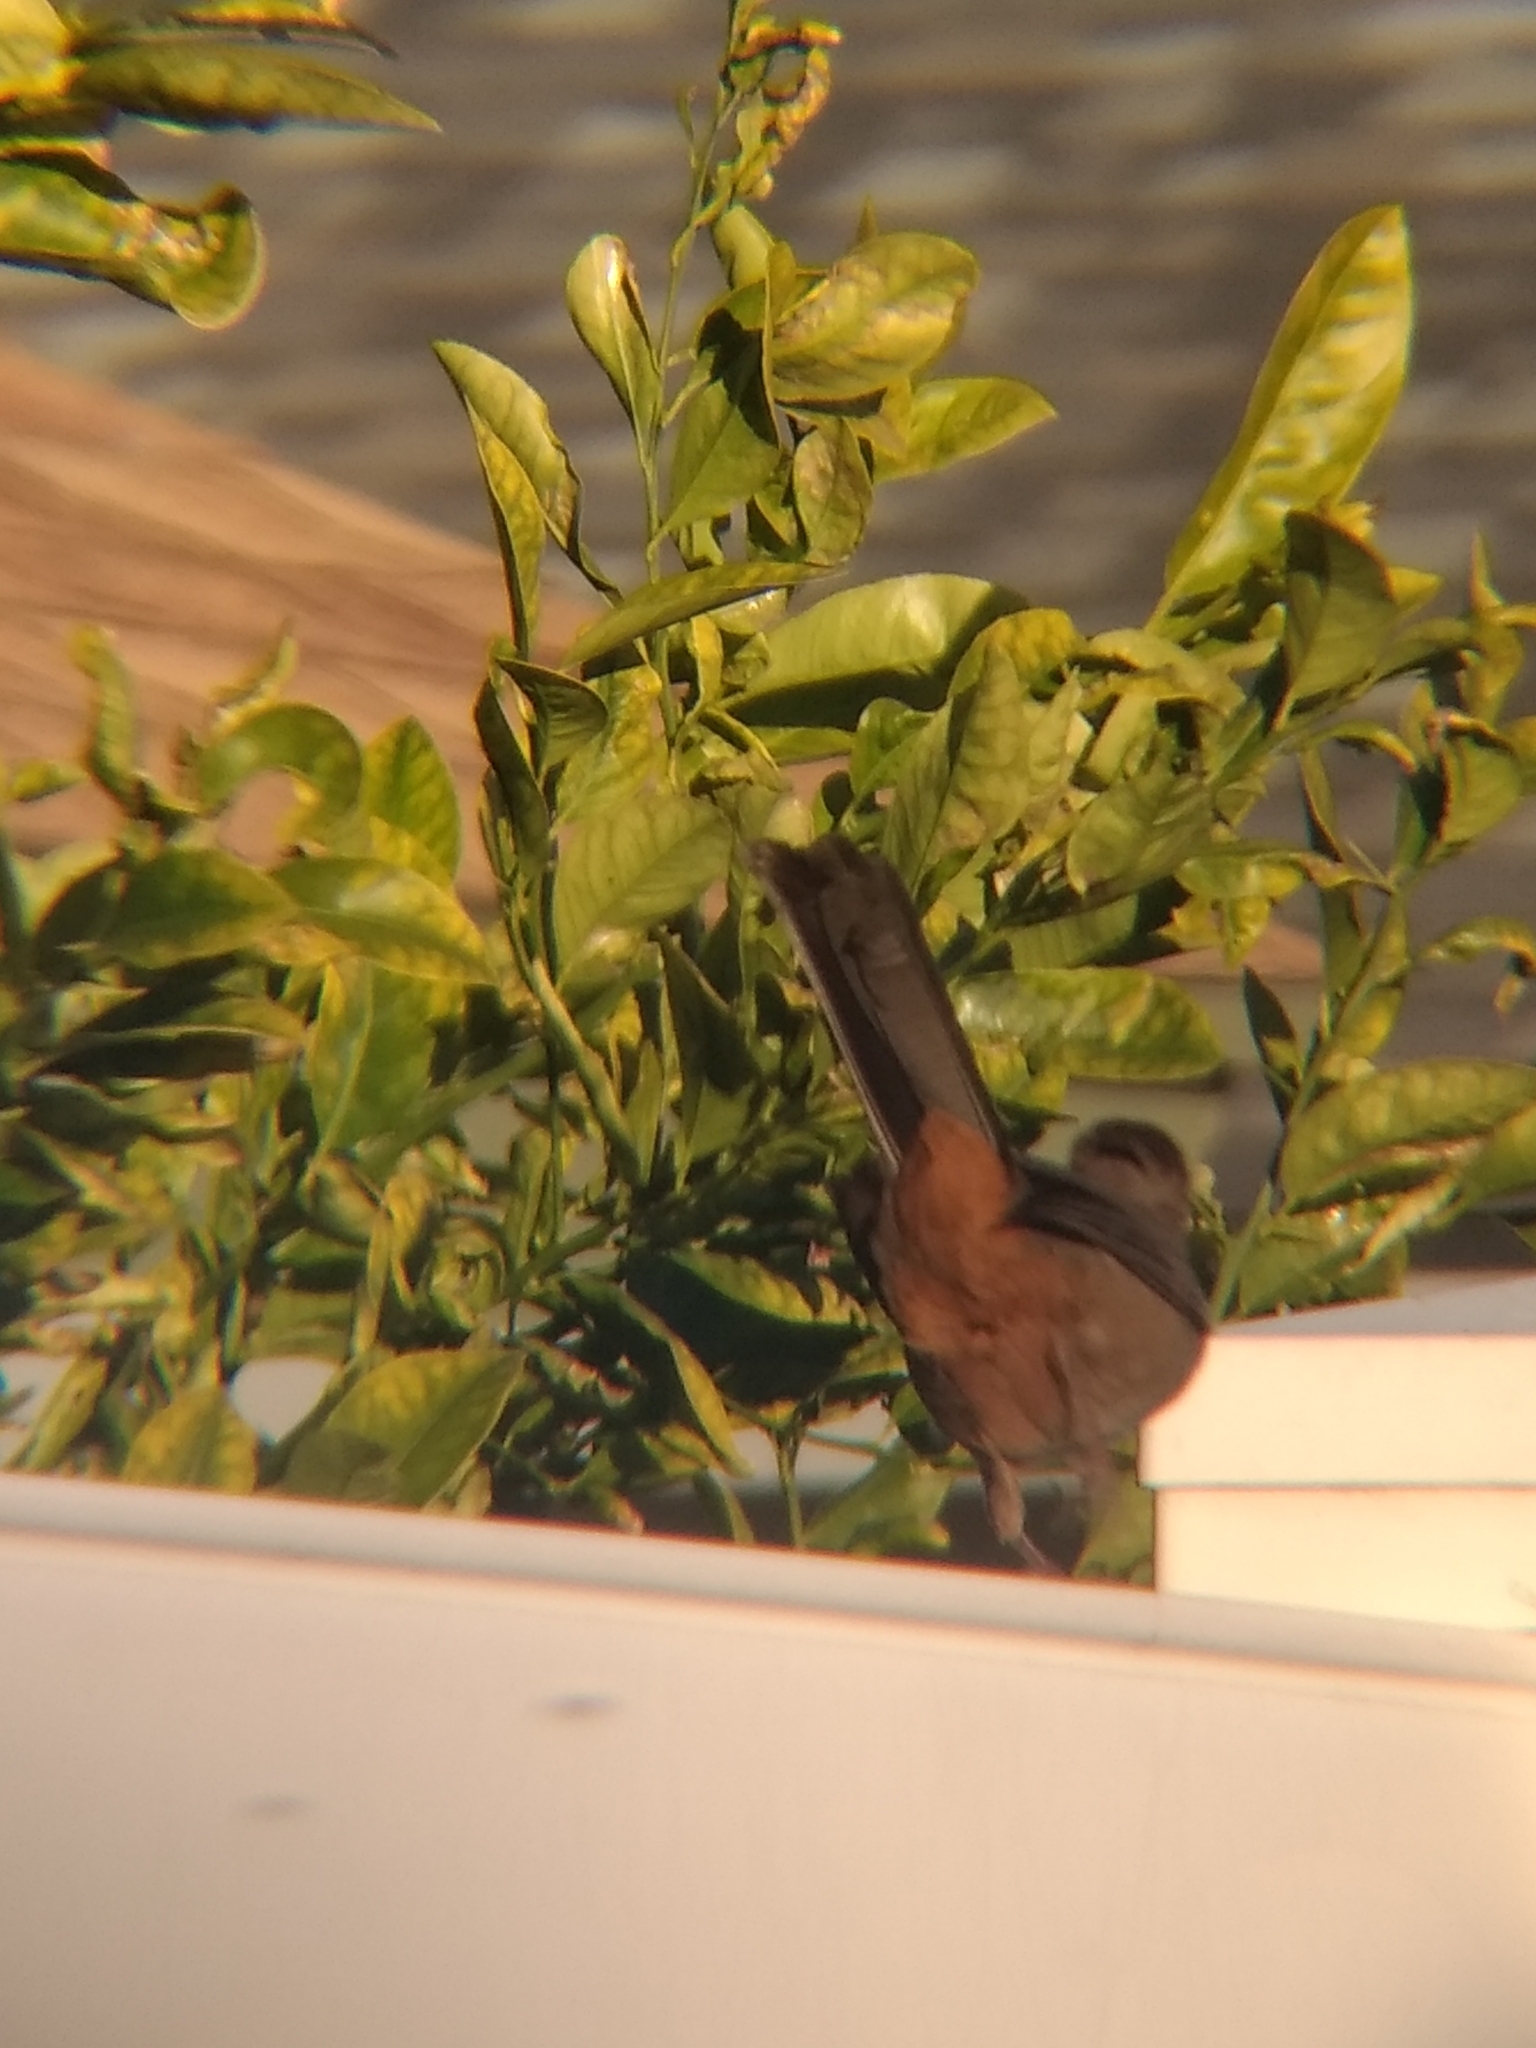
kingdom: Animalia
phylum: Chordata
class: Aves
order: Passeriformes
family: Passerellidae
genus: Melozone
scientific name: Melozone crissalis
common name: California towhee
